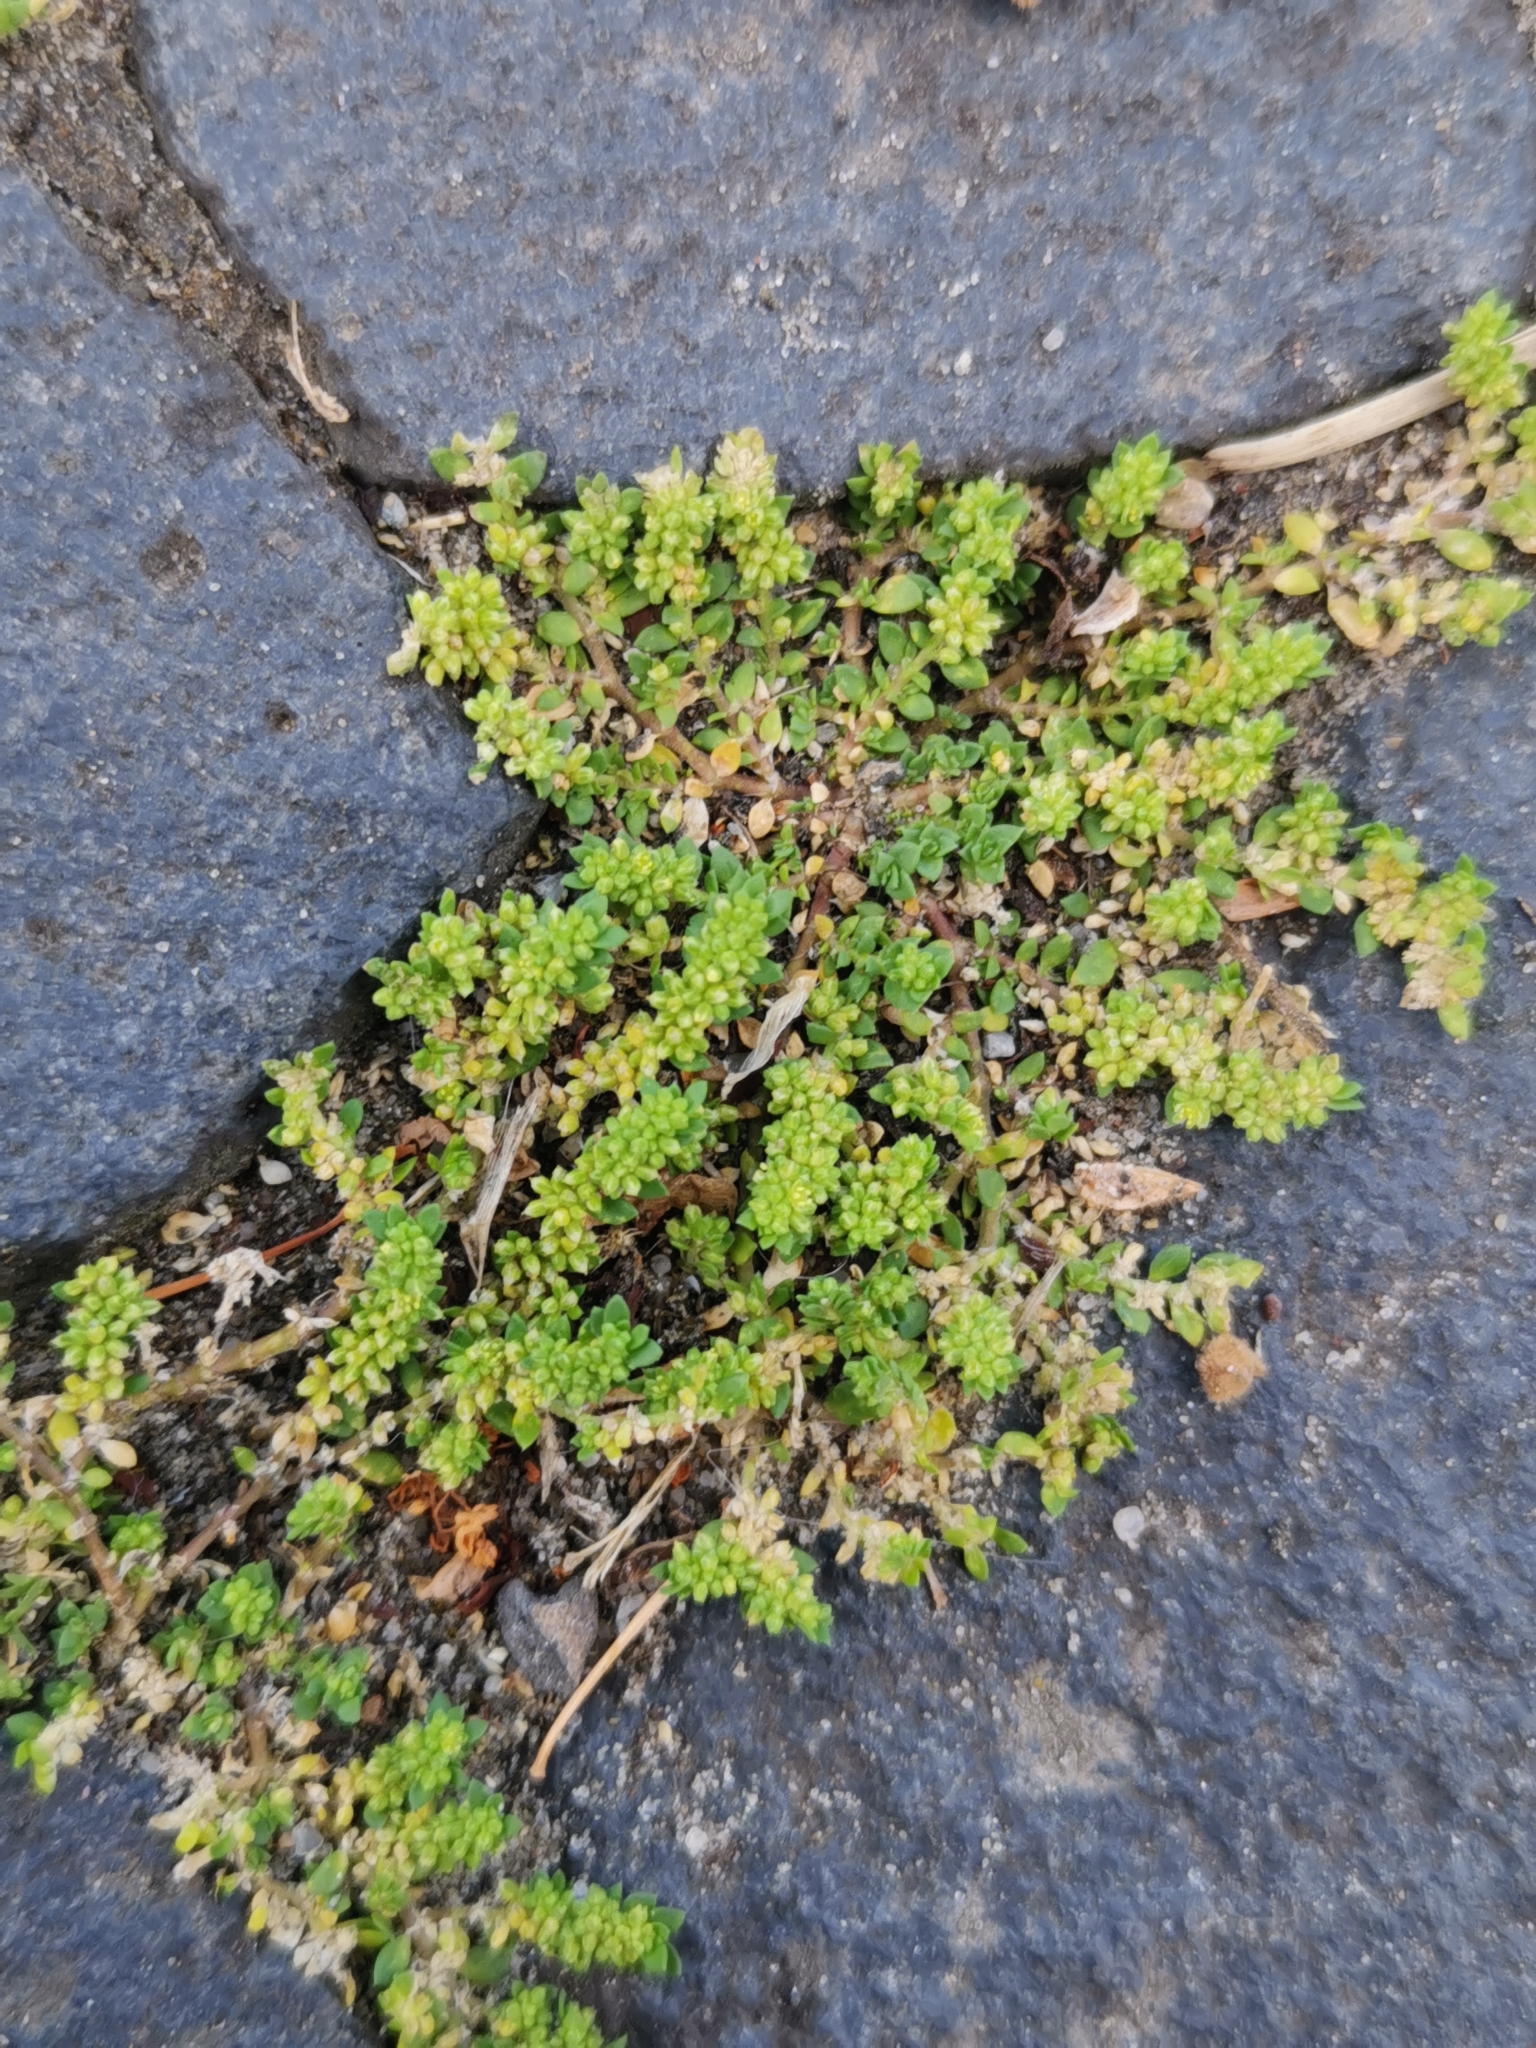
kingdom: Plantae
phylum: Tracheophyta
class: Magnoliopsida
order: Caryophyllales
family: Caryophyllaceae
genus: Herniaria
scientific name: Herniaria glabra
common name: Smooth rupturewort
